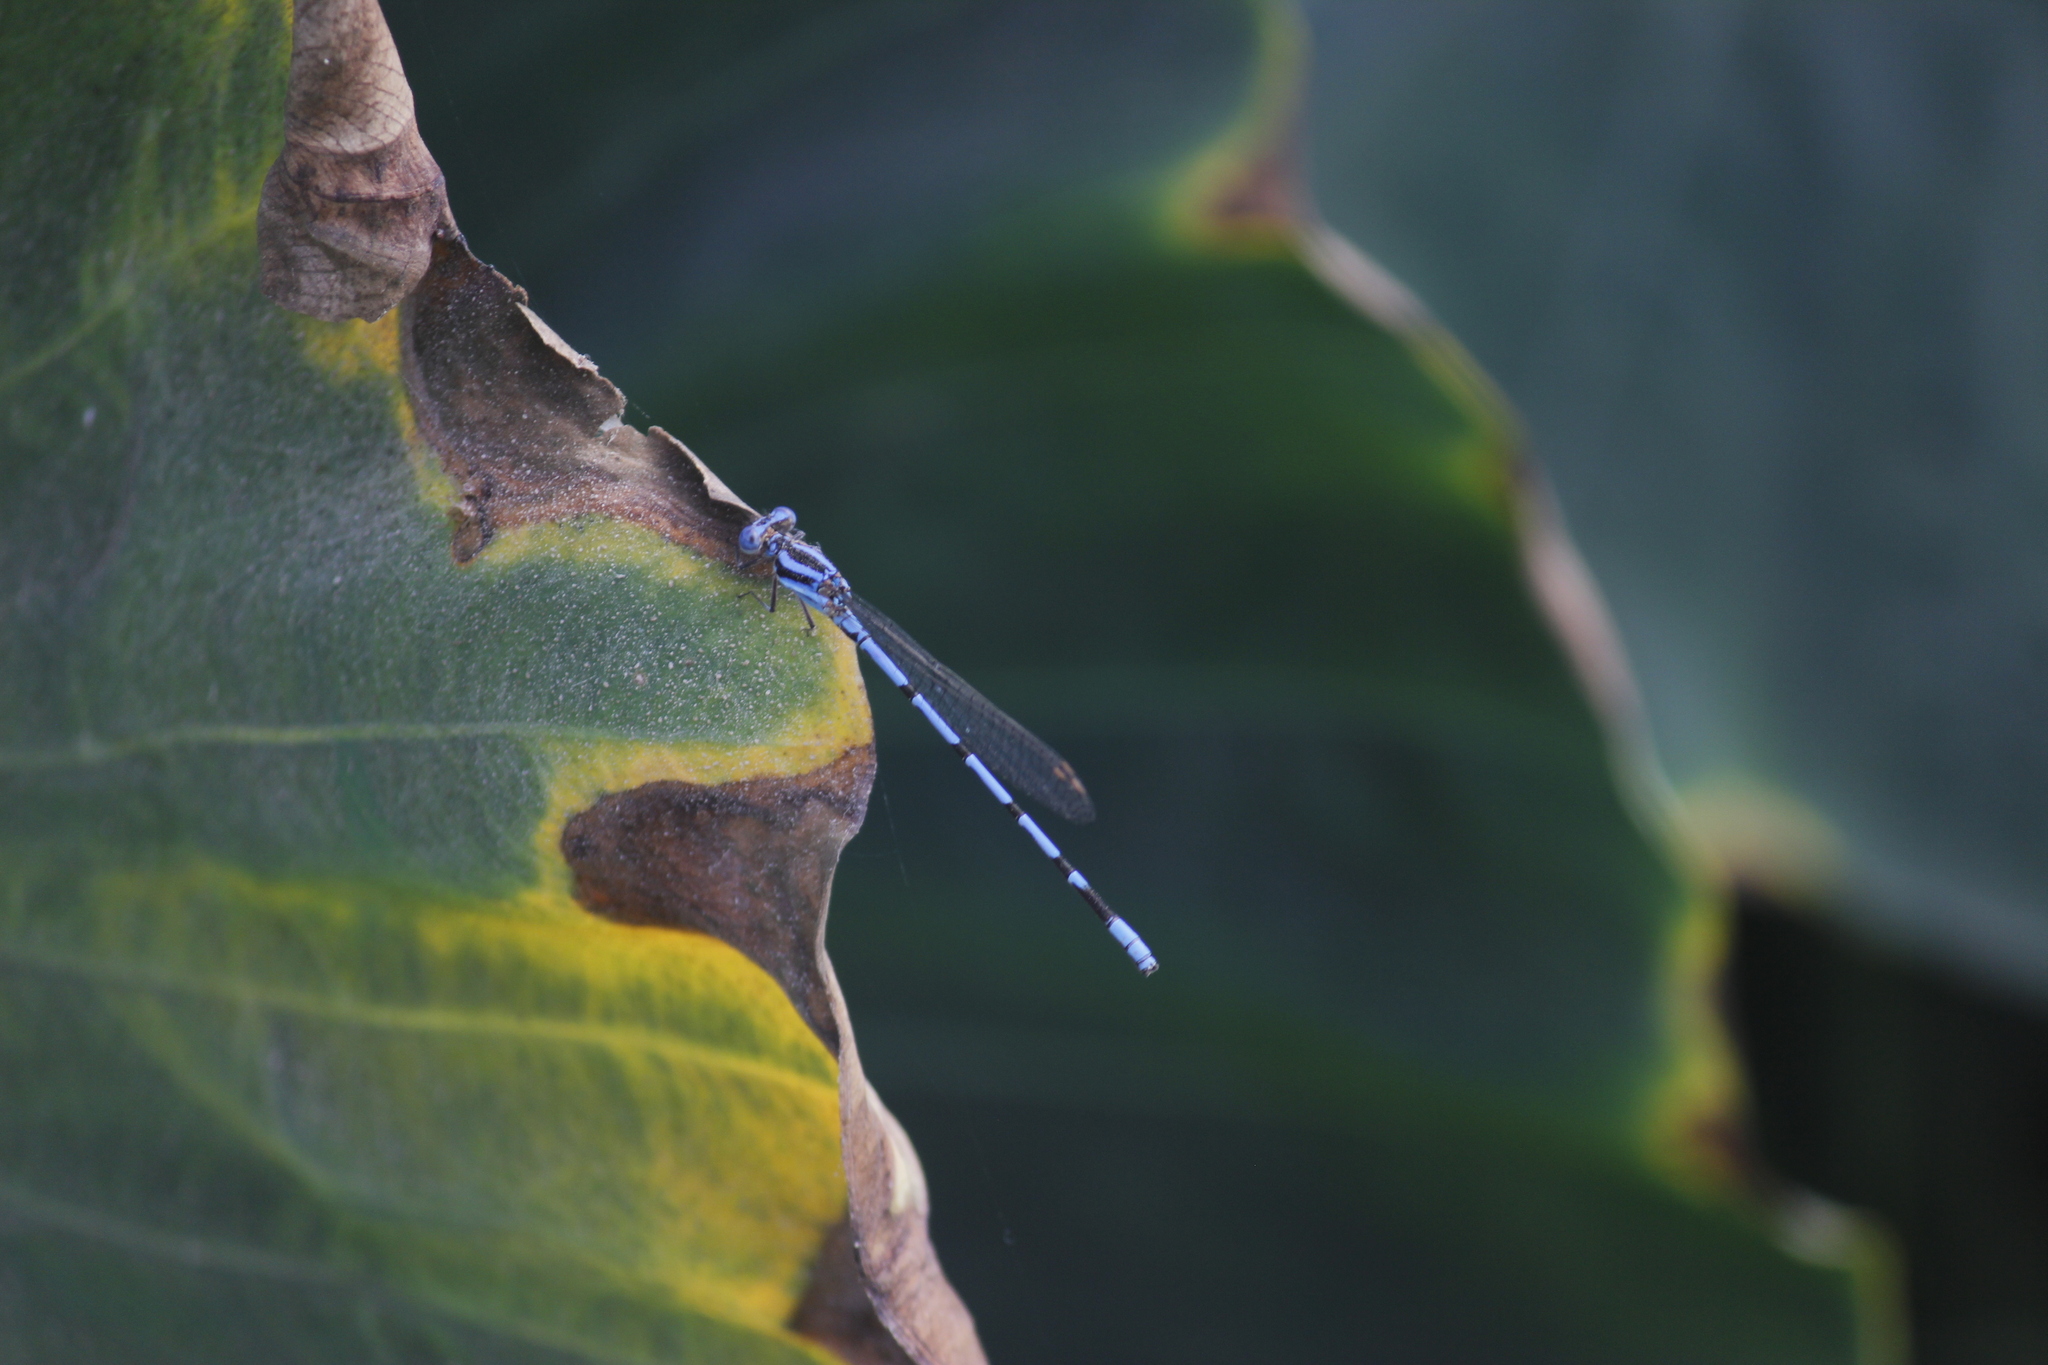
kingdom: Animalia
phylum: Arthropoda
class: Insecta
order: Odonata
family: Coenagrionidae
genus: Argia
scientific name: Argia inculta
